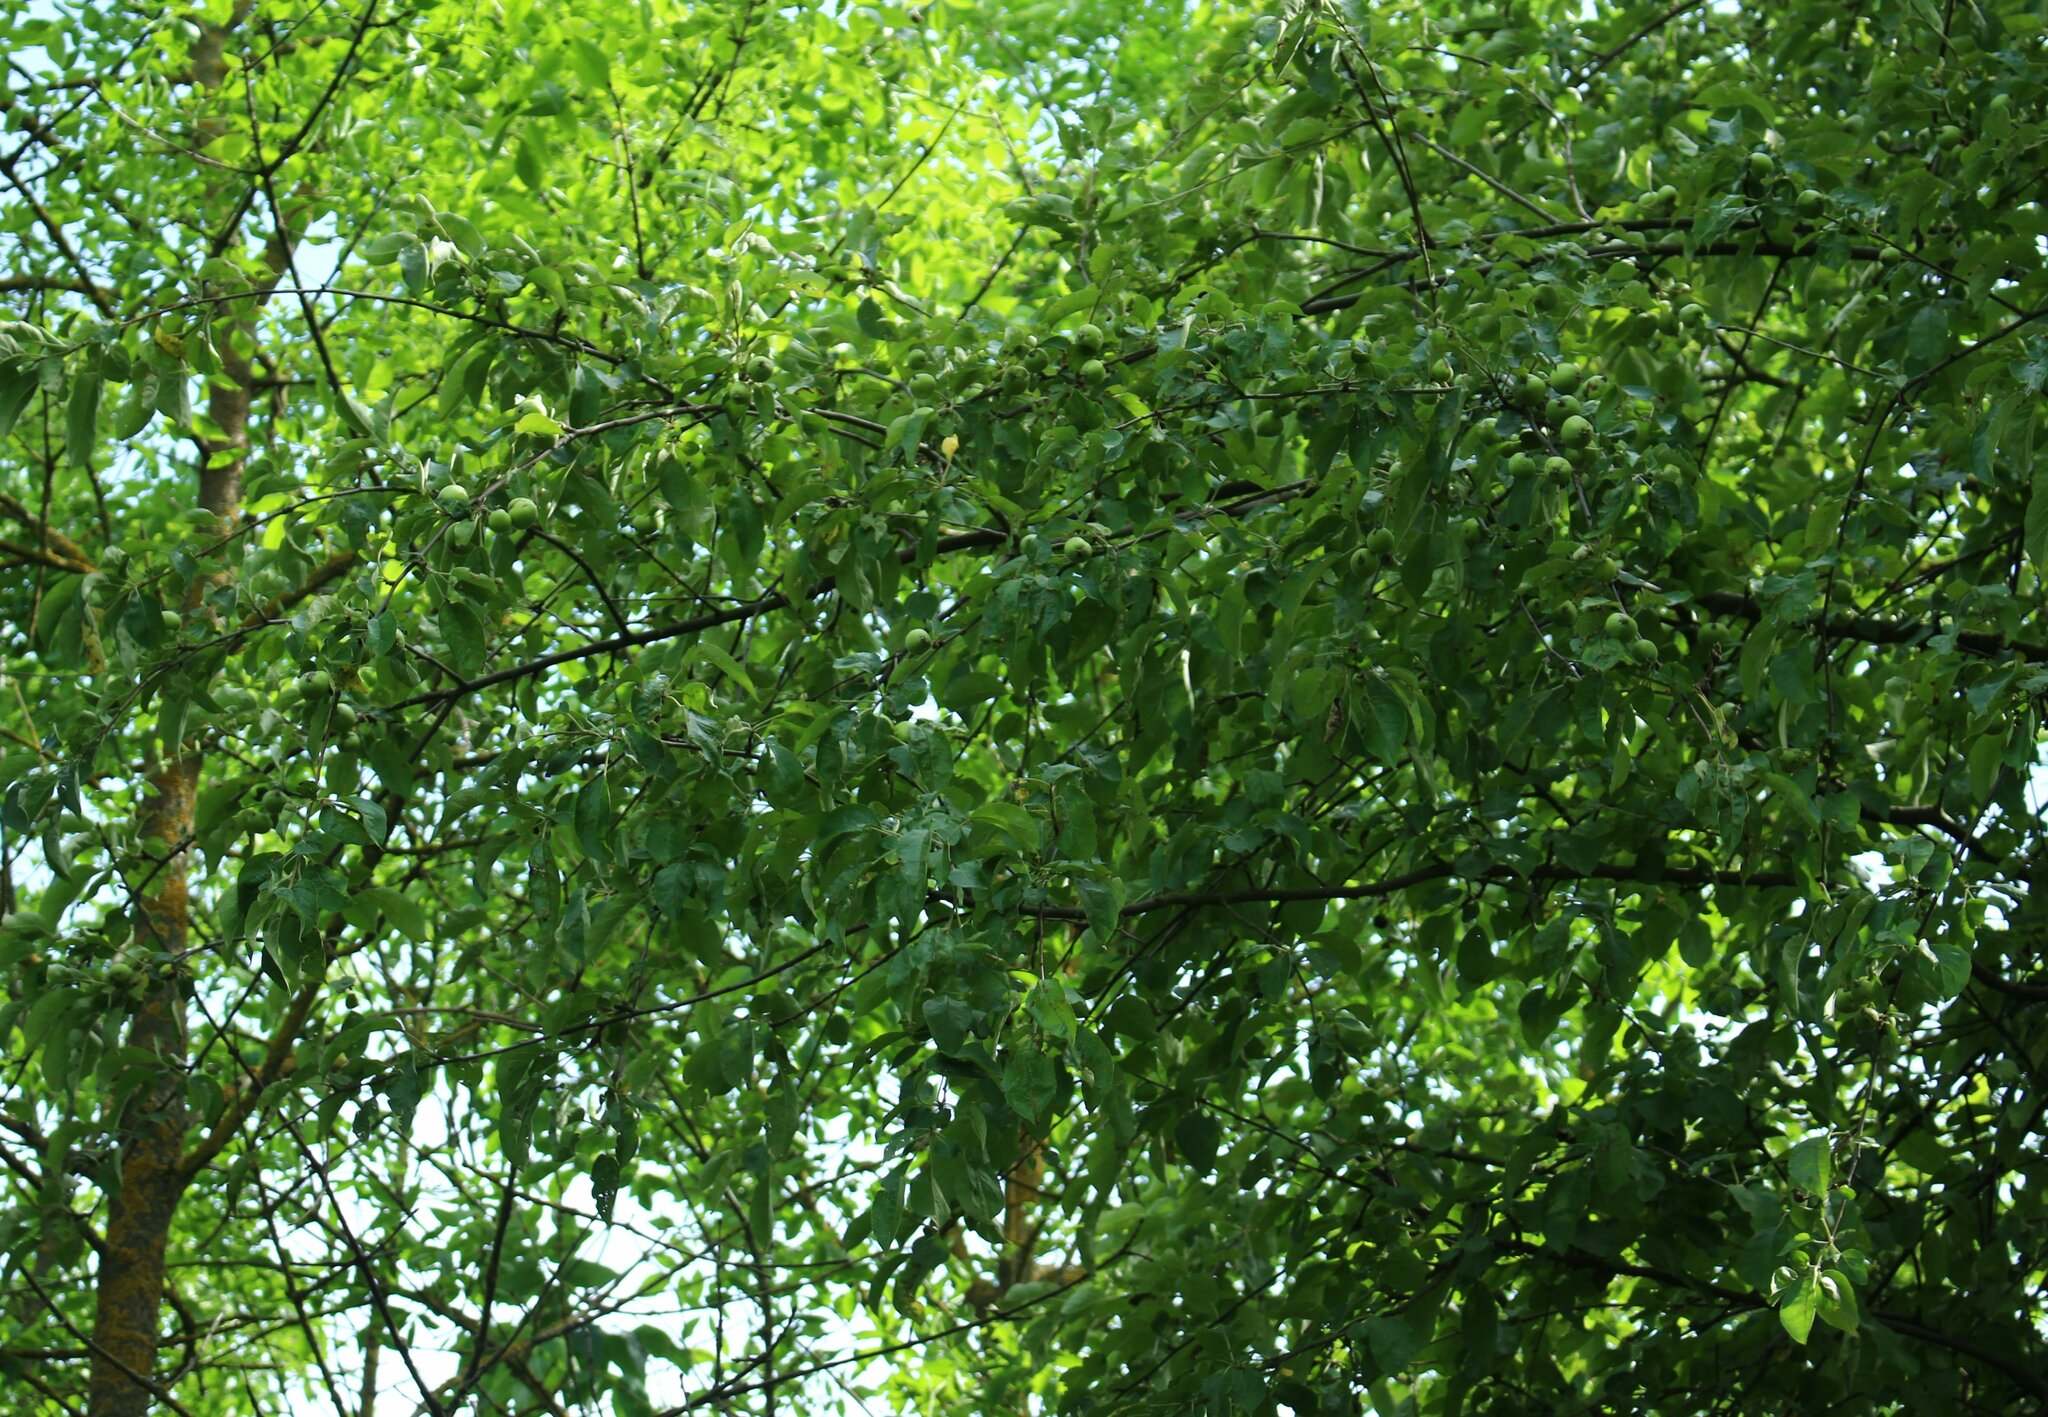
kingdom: Plantae
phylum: Tracheophyta
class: Magnoliopsida
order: Rosales
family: Rosaceae
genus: Malus
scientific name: Malus orientalis
